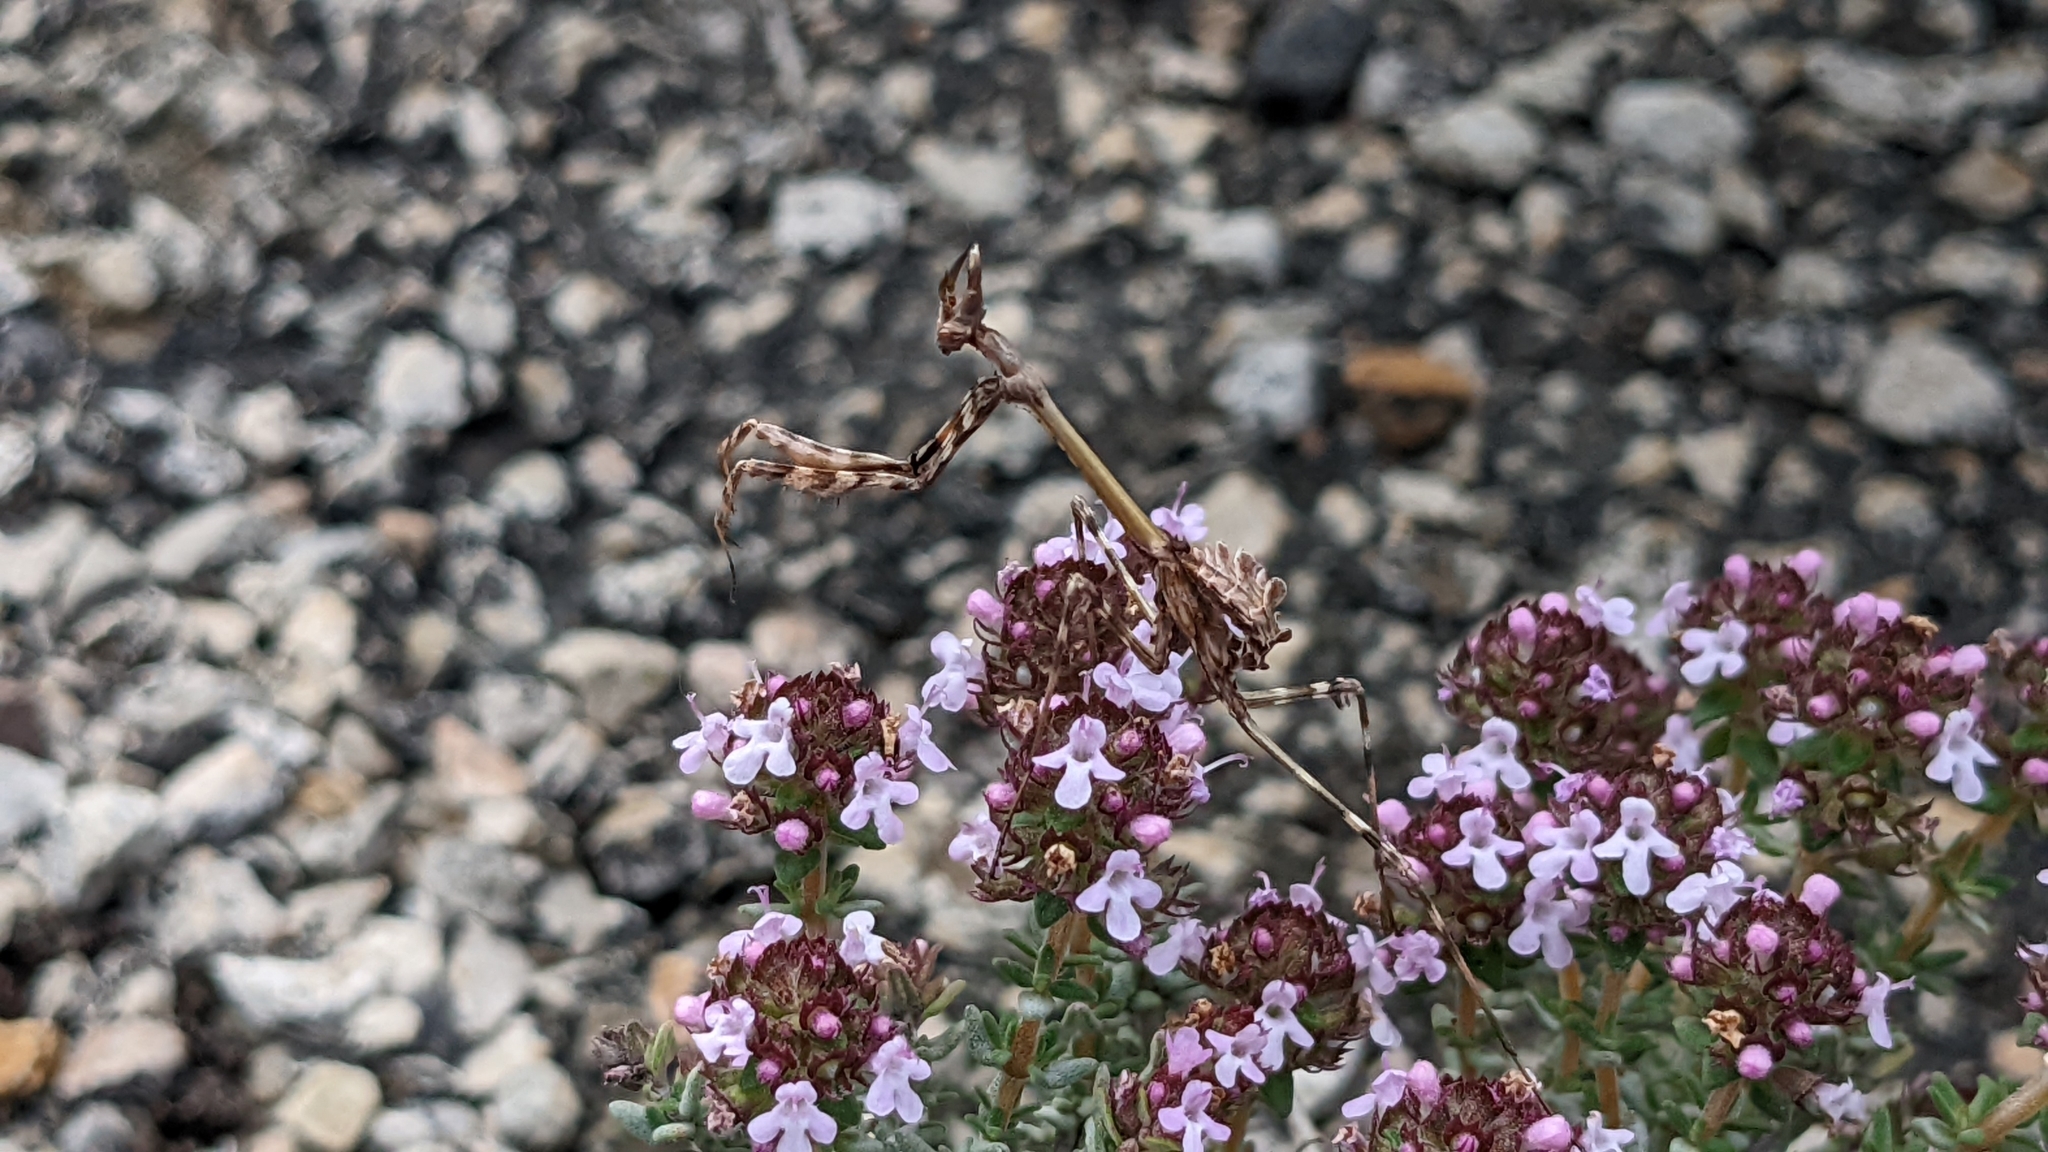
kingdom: Animalia
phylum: Arthropoda
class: Insecta
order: Mantodea
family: Empusidae
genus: Empusa
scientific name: Empusa pennata
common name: Conehead mantis
